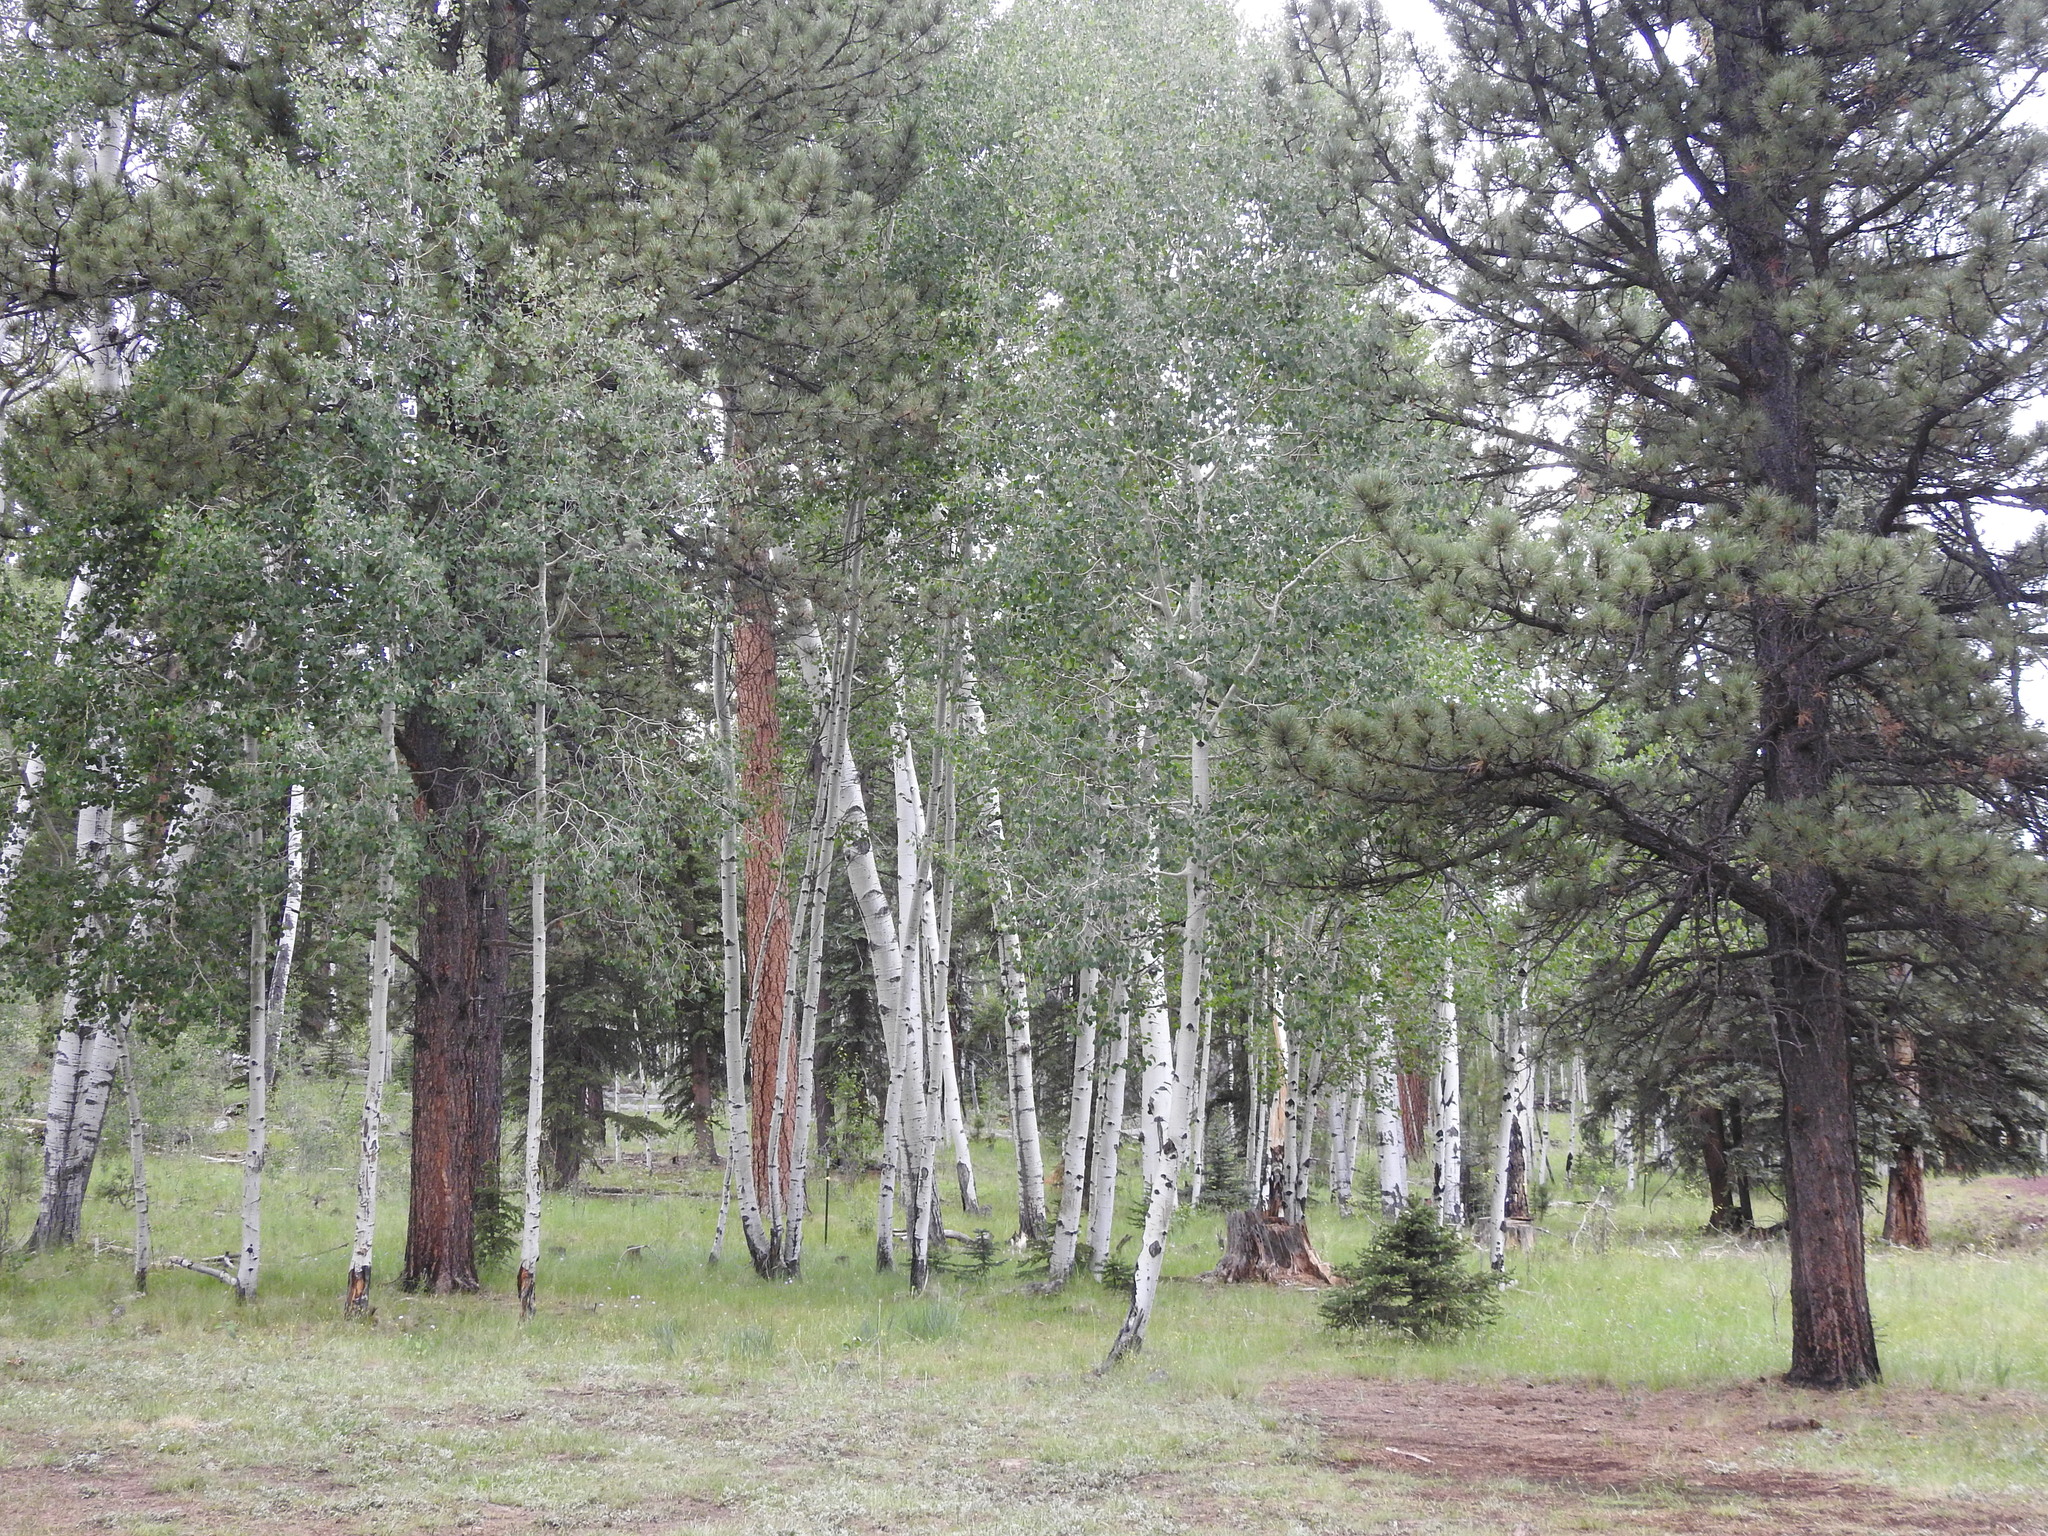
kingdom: Plantae
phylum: Tracheophyta
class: Magnoliopsida
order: Malpighiales
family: Salicaceae
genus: Populus
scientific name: Populus tremuloides
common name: Quaking aspen
